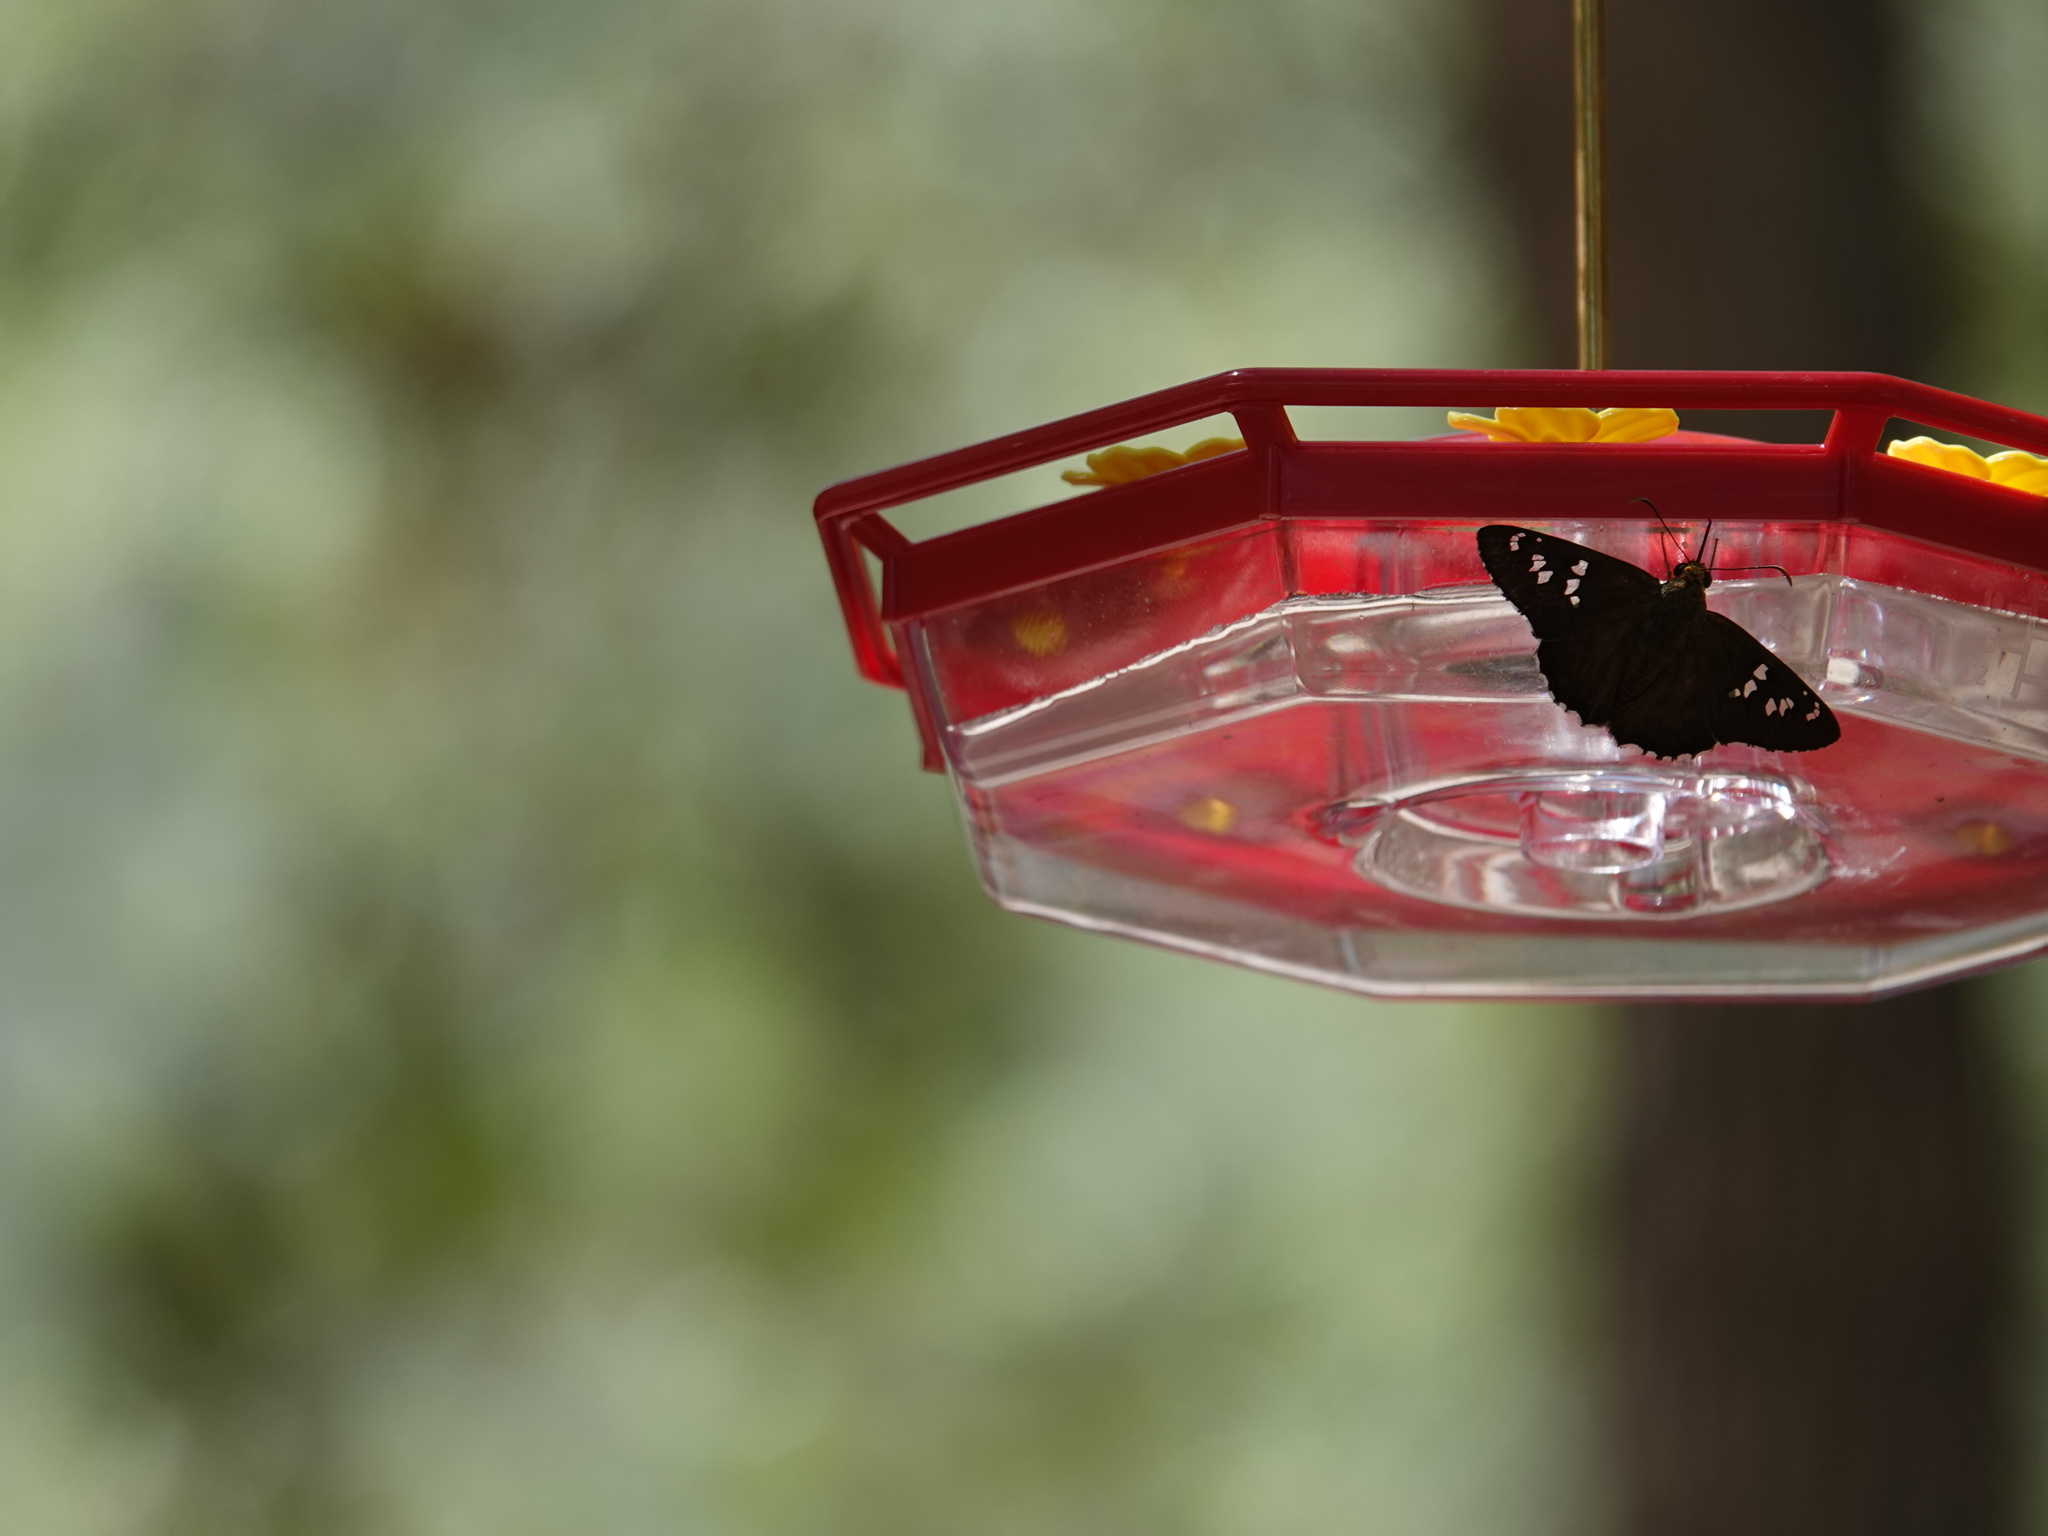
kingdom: Animalia
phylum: Arthropoda
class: Insecta
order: Lepidoptera
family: Hesperiidae
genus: Pyrrhopyge
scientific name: Pyrrhopyge araxes
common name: Dull firetip
